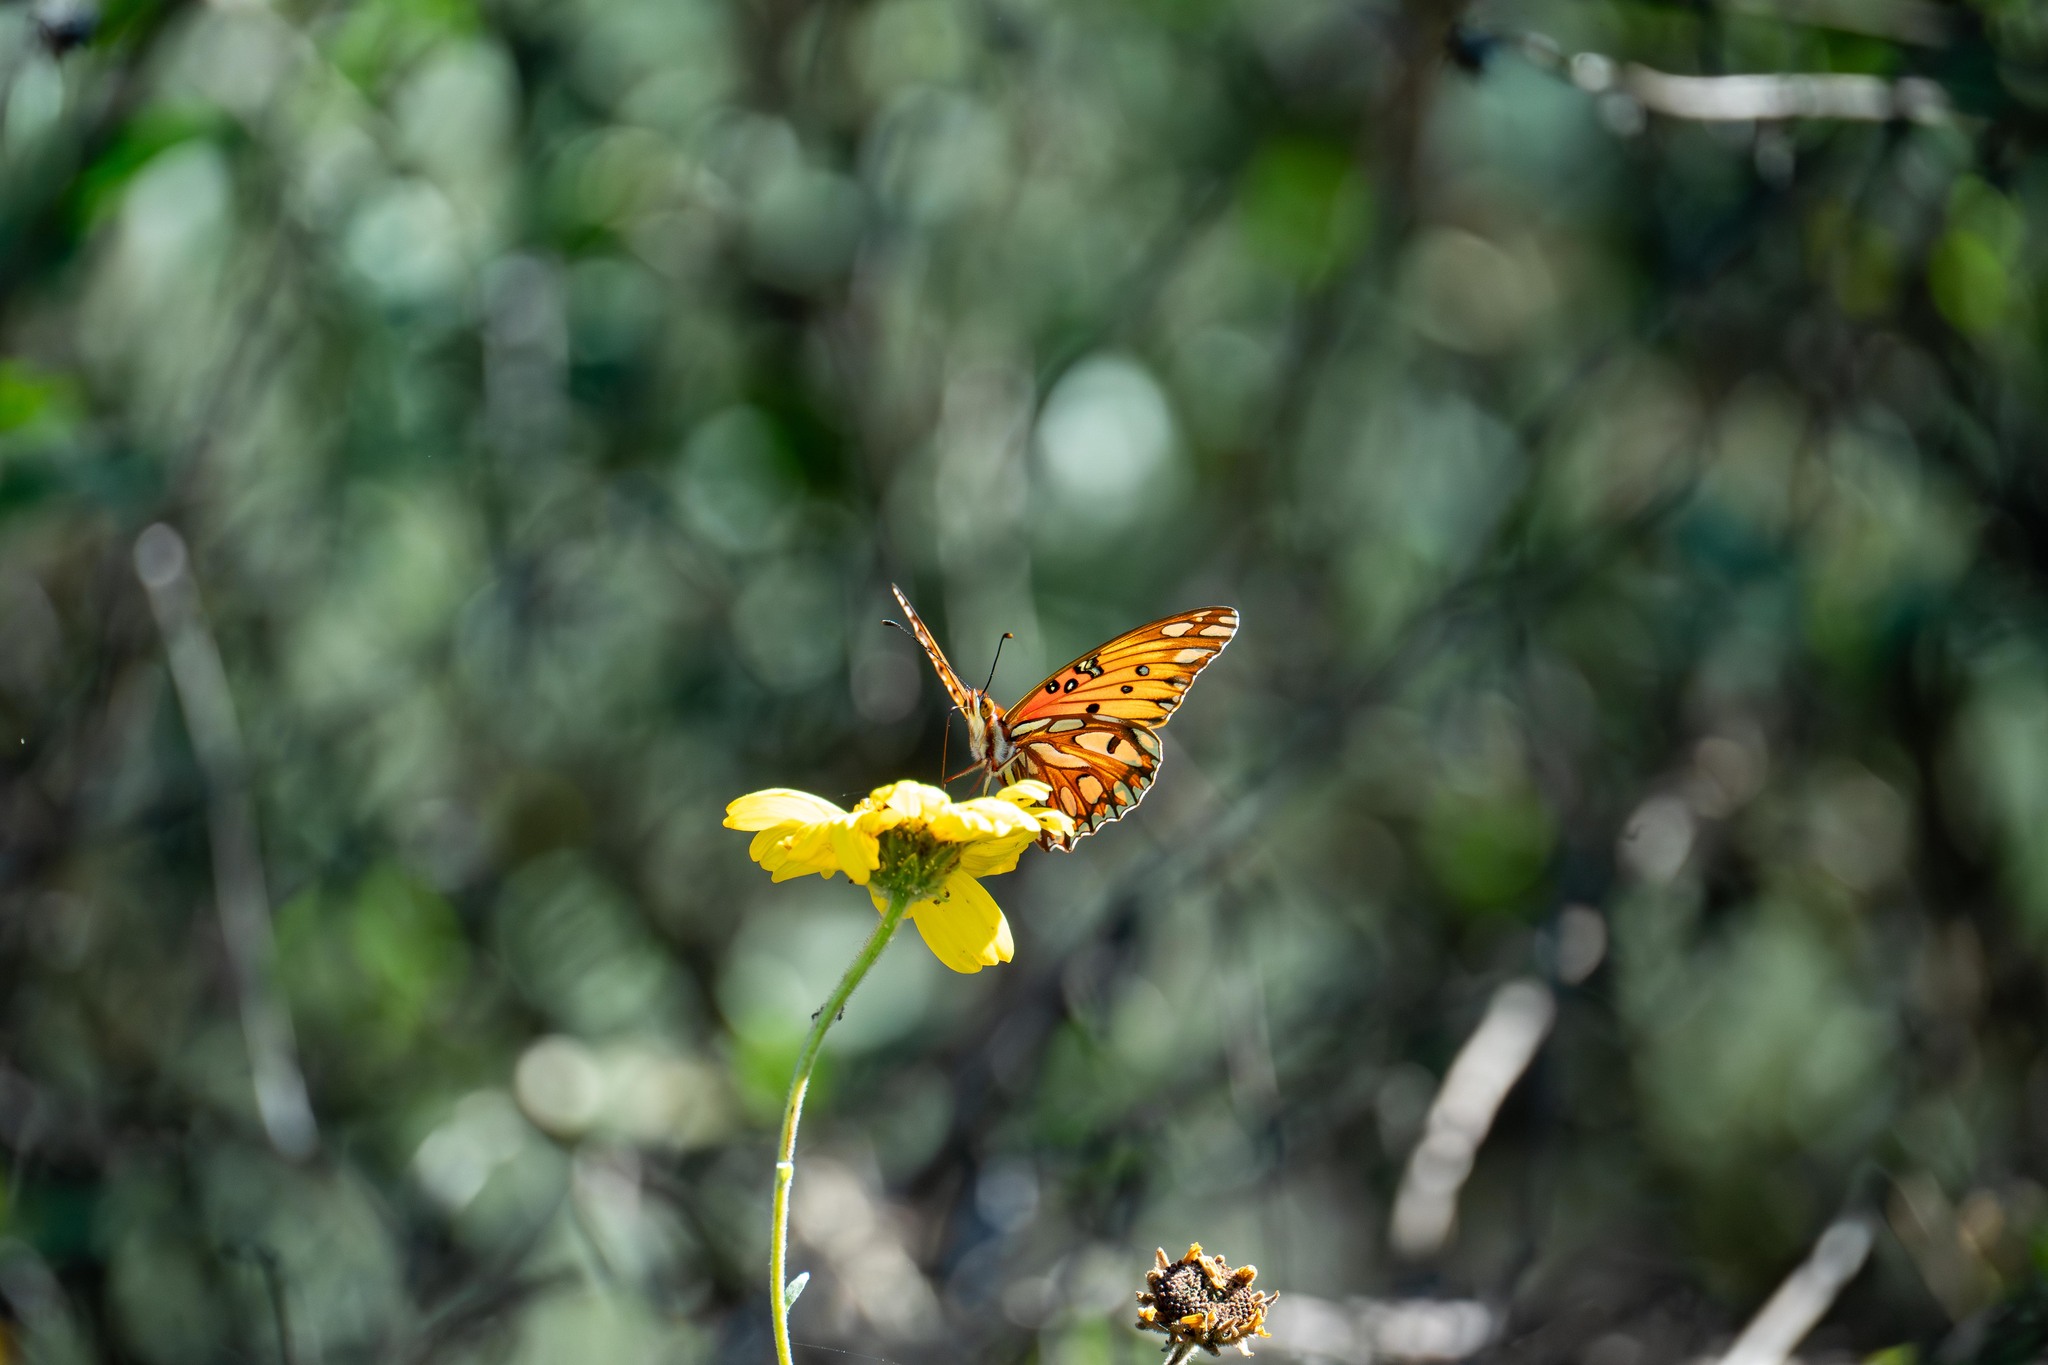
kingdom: Animalia
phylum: Arthropoda
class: Insecta
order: Lepidoptera
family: Nymphalidae
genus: Dione
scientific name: Dione vanillae
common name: Gulf fritillary
